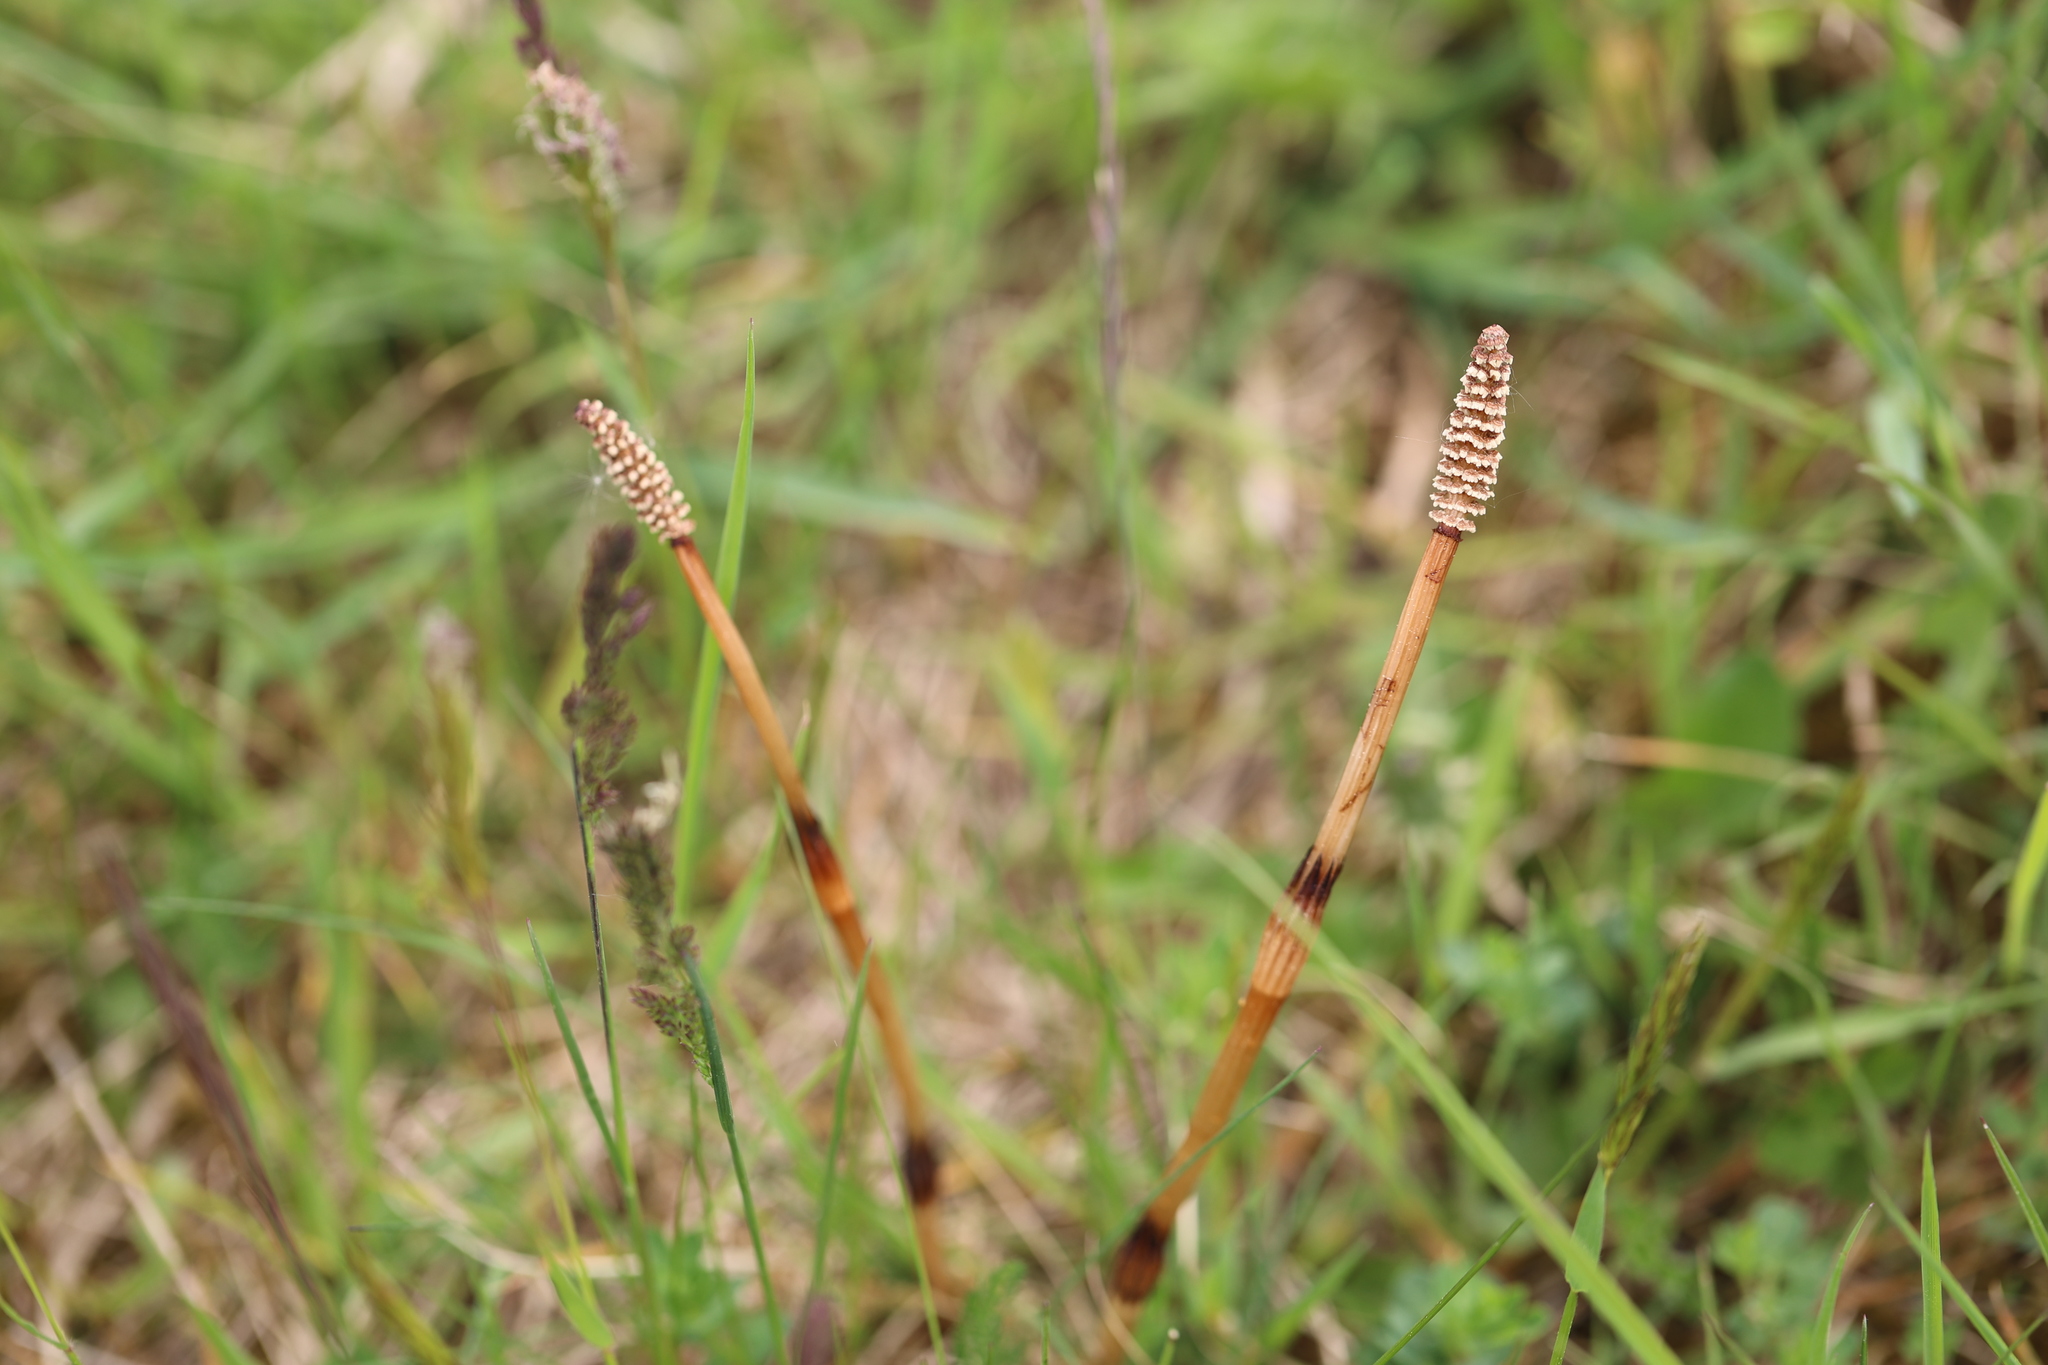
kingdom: Plantae
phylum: Tracheophyta
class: Polypodiopsida
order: Equisetales
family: Equisetaceae
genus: Equisetum
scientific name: Equisetum arvense
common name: Field horsetail
